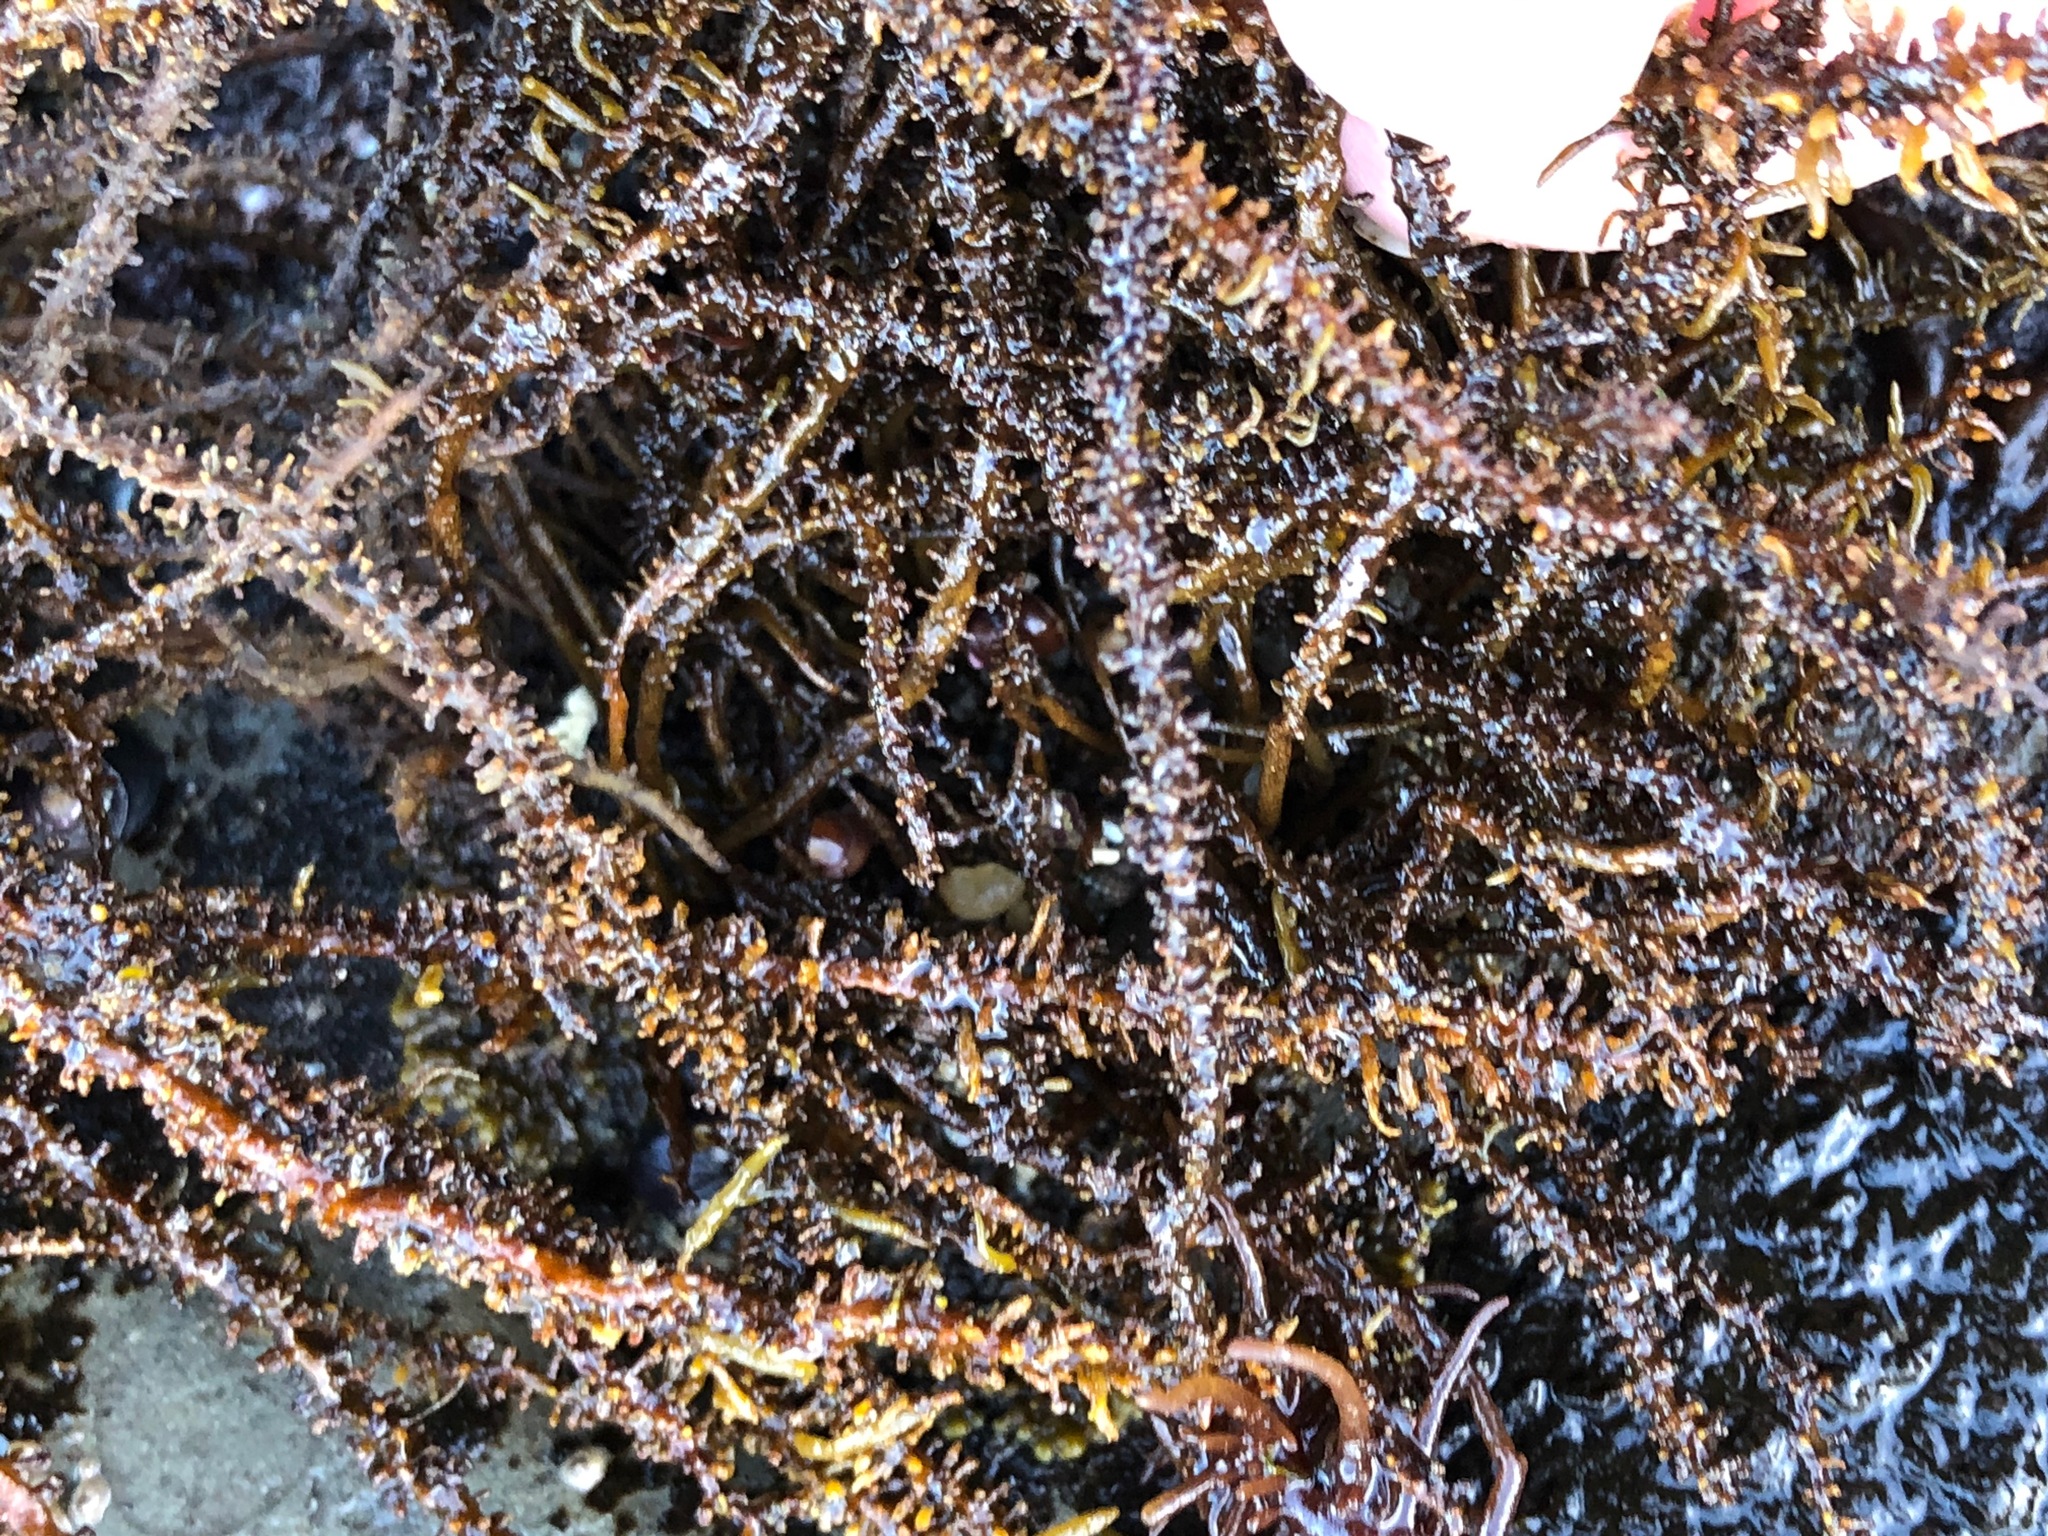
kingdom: Chromista
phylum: Ochrophyta
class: Phaeophyceae
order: Scytosiphonales
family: Scytosiphonaceae
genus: Analipus
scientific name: Analipus japonicus
